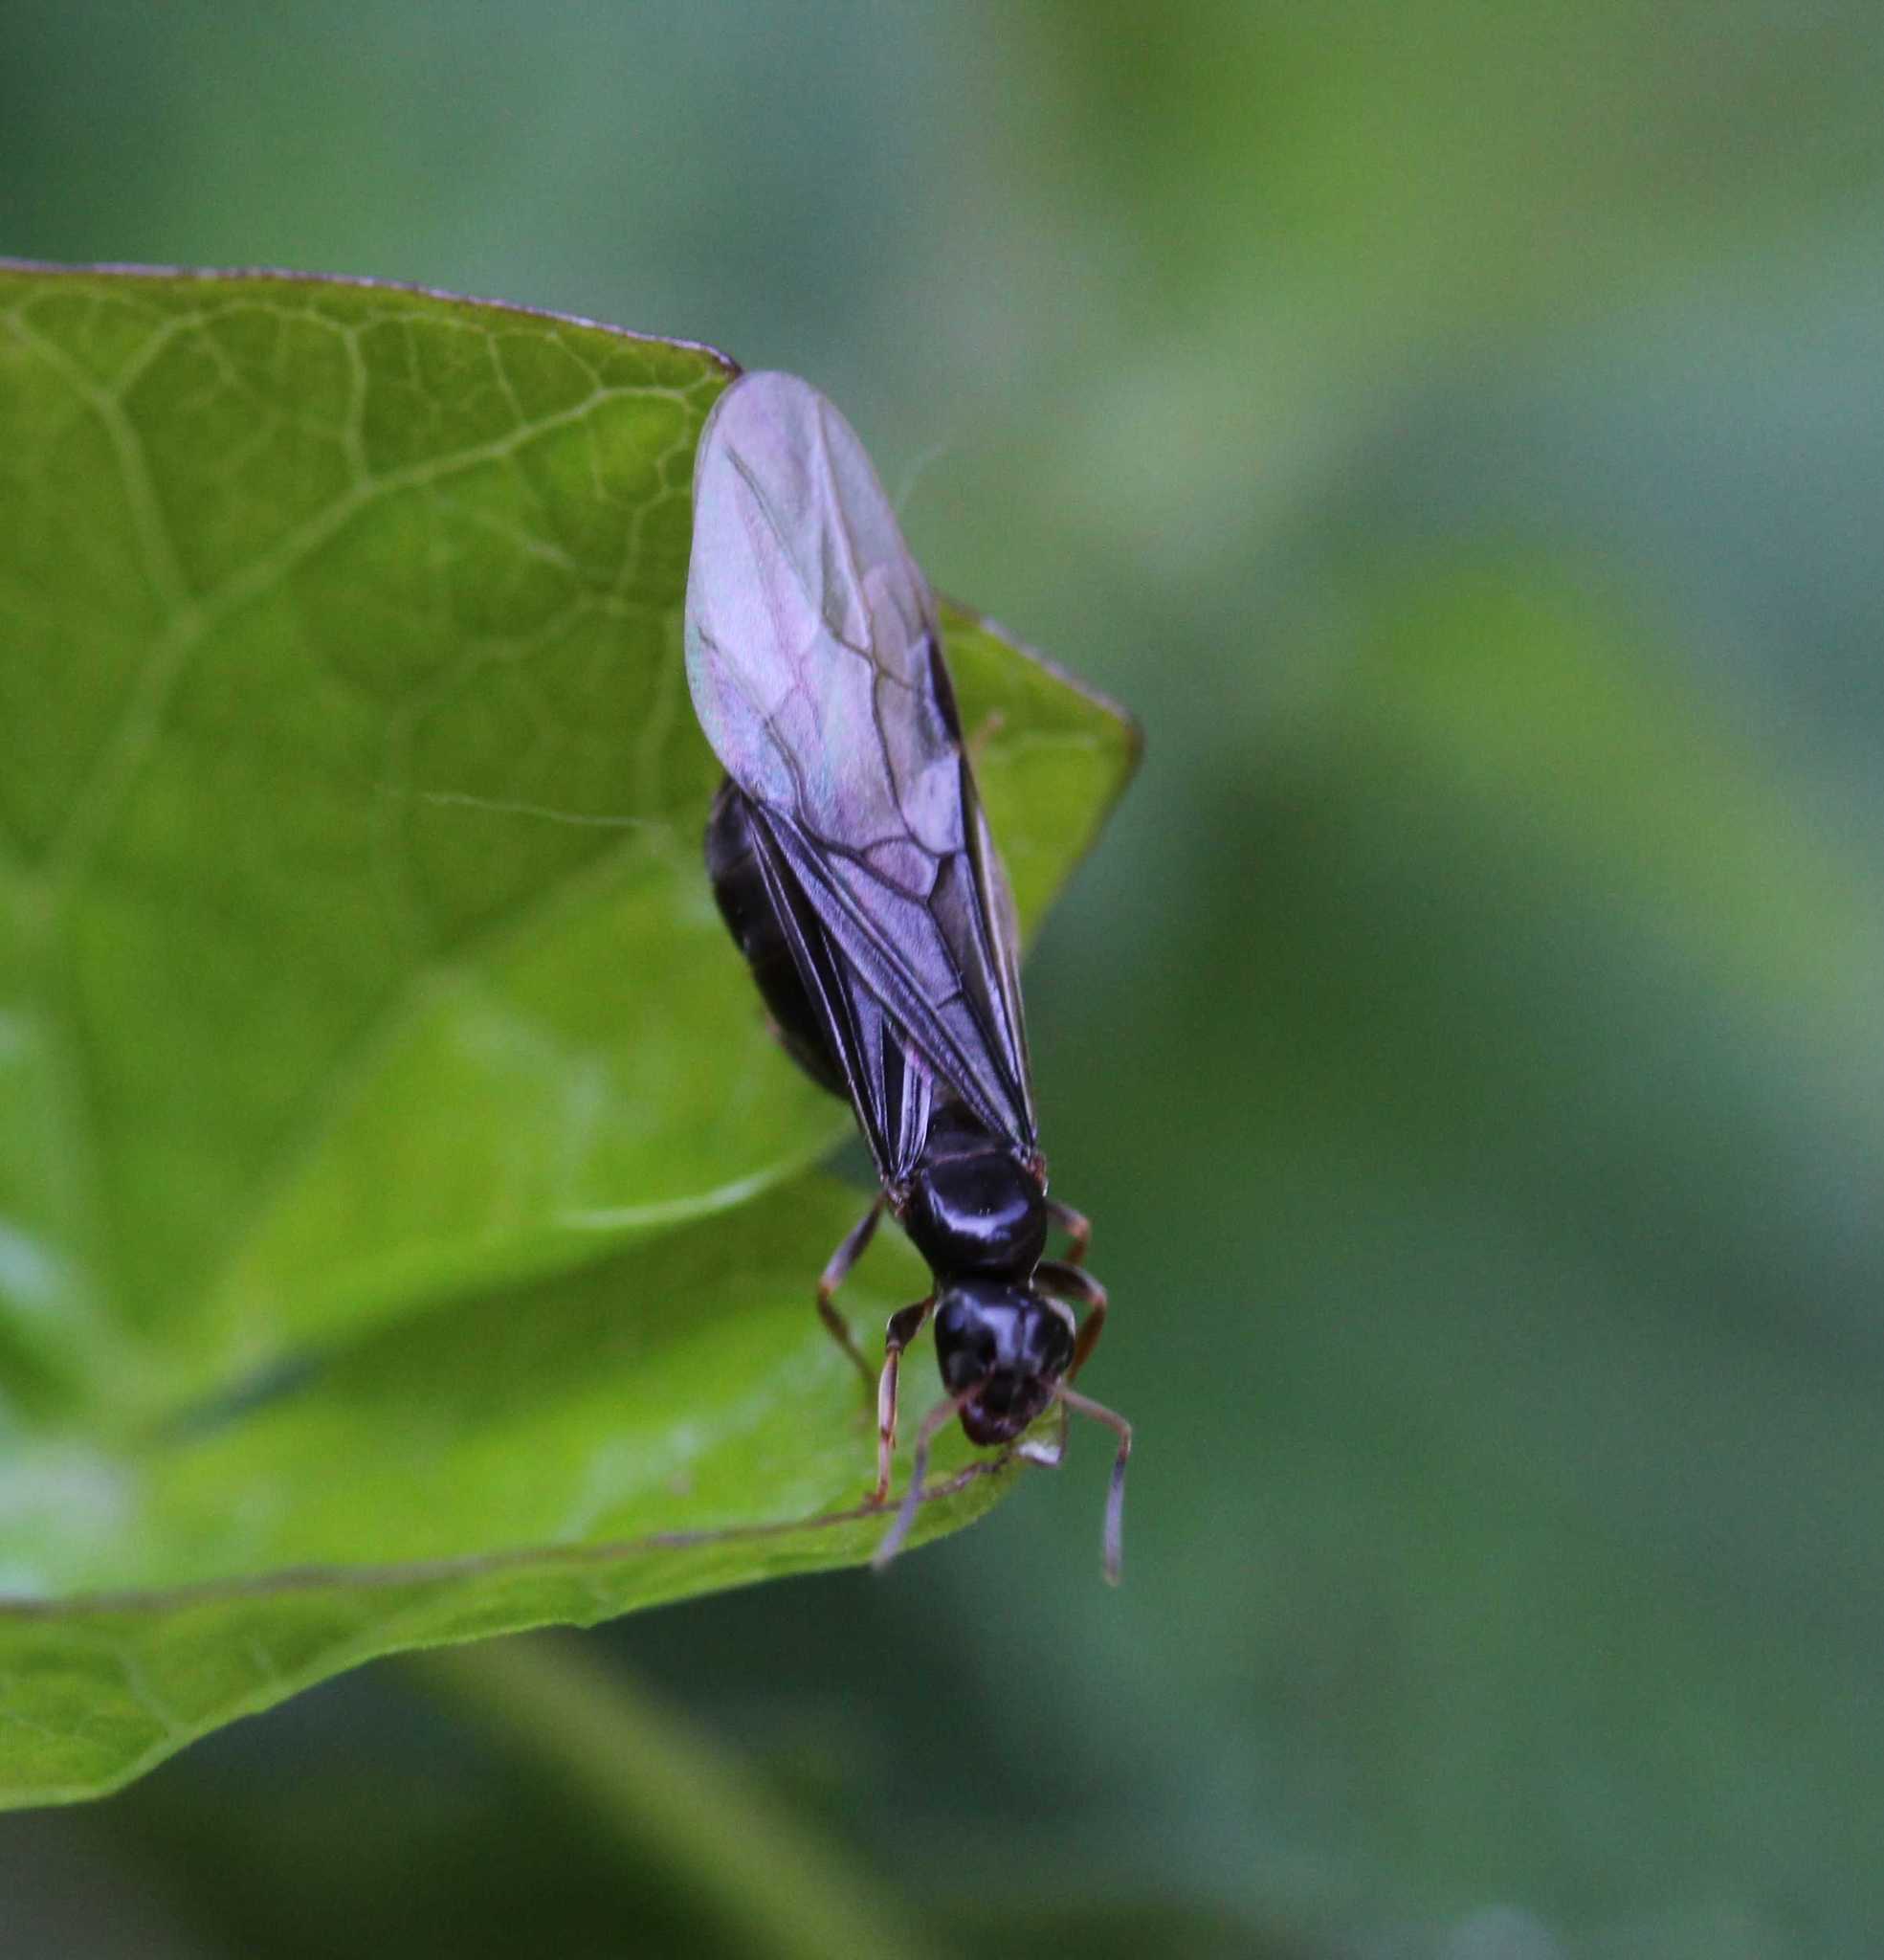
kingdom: Animalia
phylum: Arthropoda
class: Insecta
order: Hymenoptera
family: Formicidae
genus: Lasius
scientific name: Lasius
